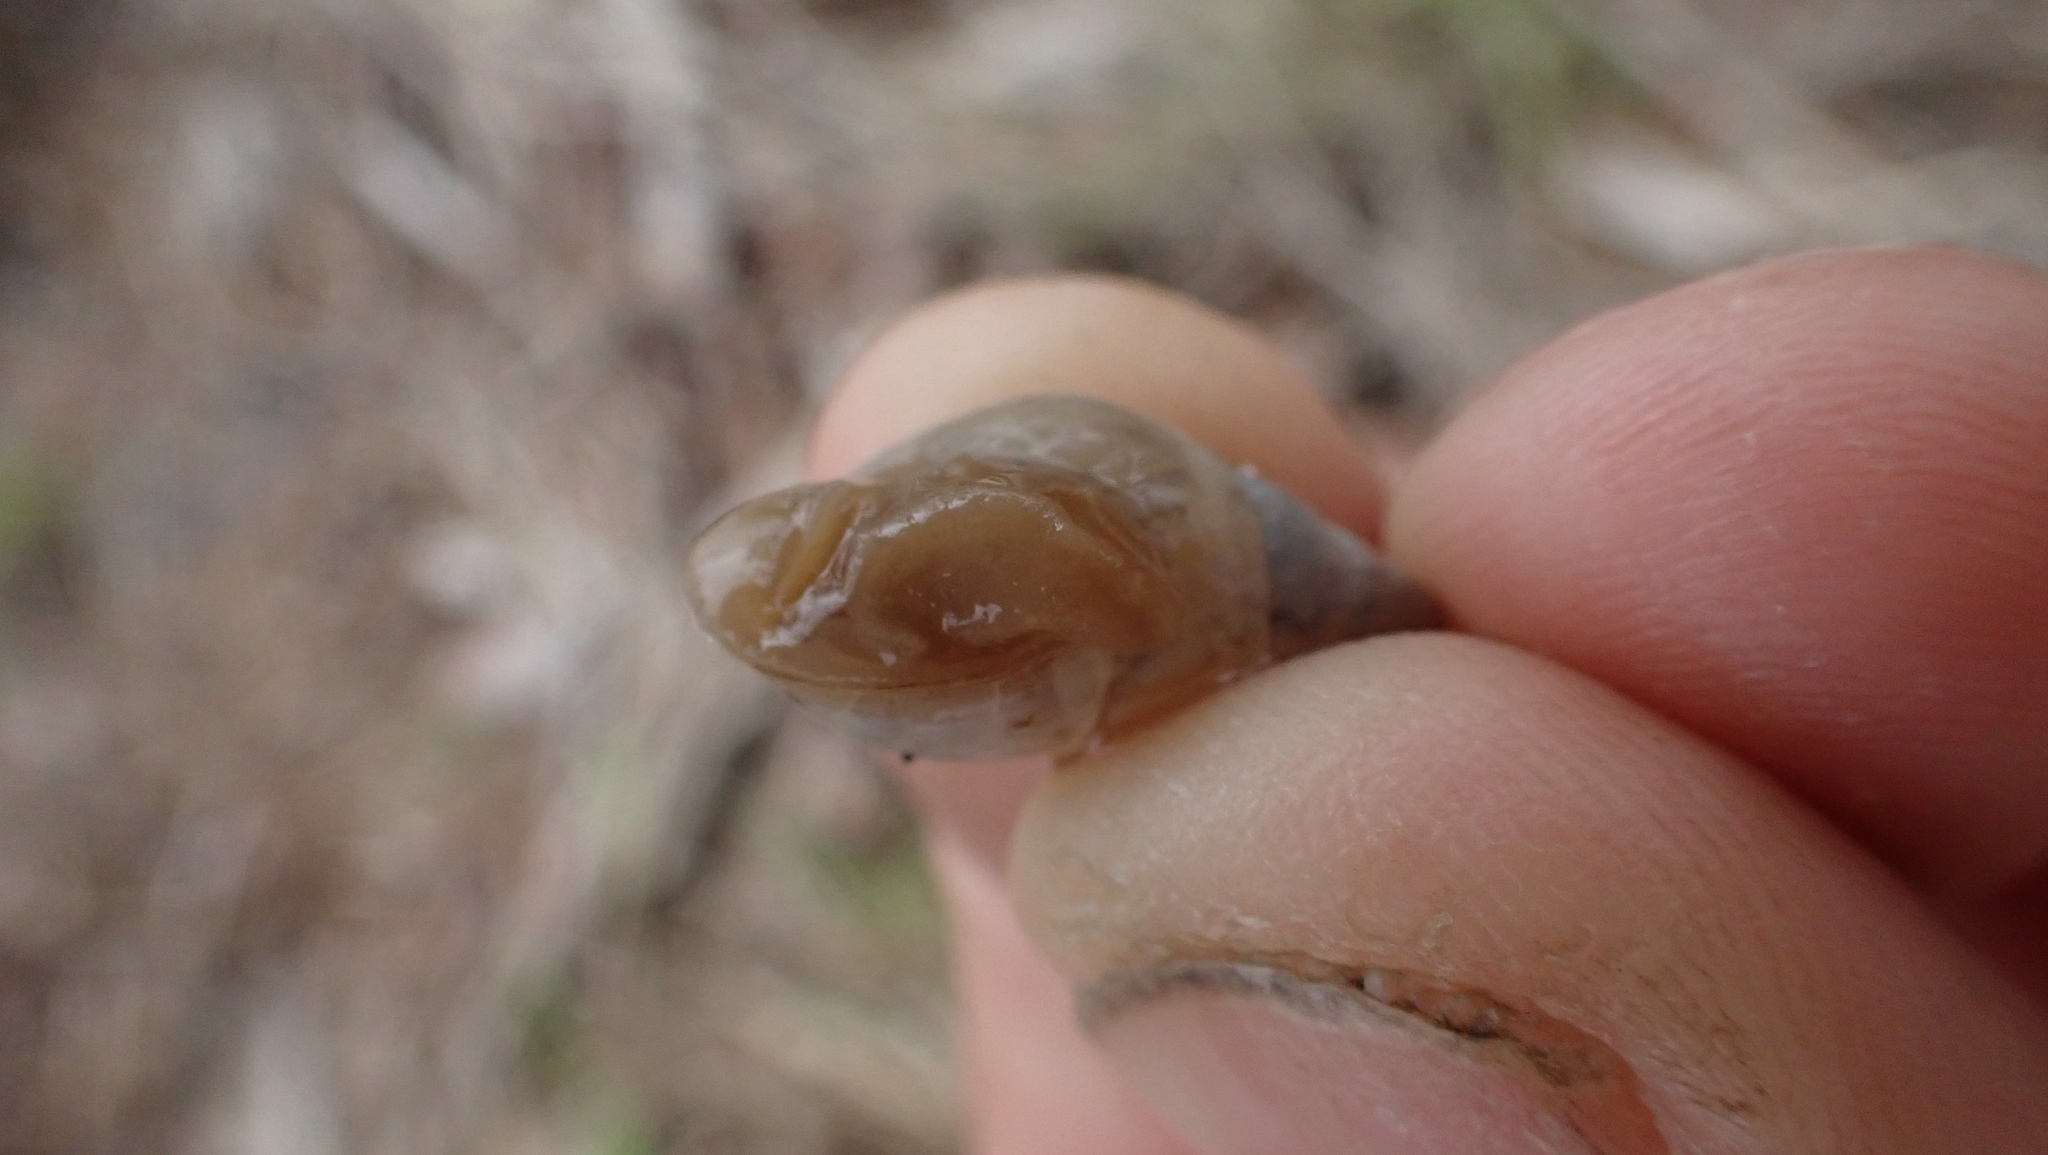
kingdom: Animalia
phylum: Mollusca
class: Gastropoda
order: Stylommatophora
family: Bulimulidae
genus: Bulimulus
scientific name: Bulimulus bonariensis
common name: Snail
